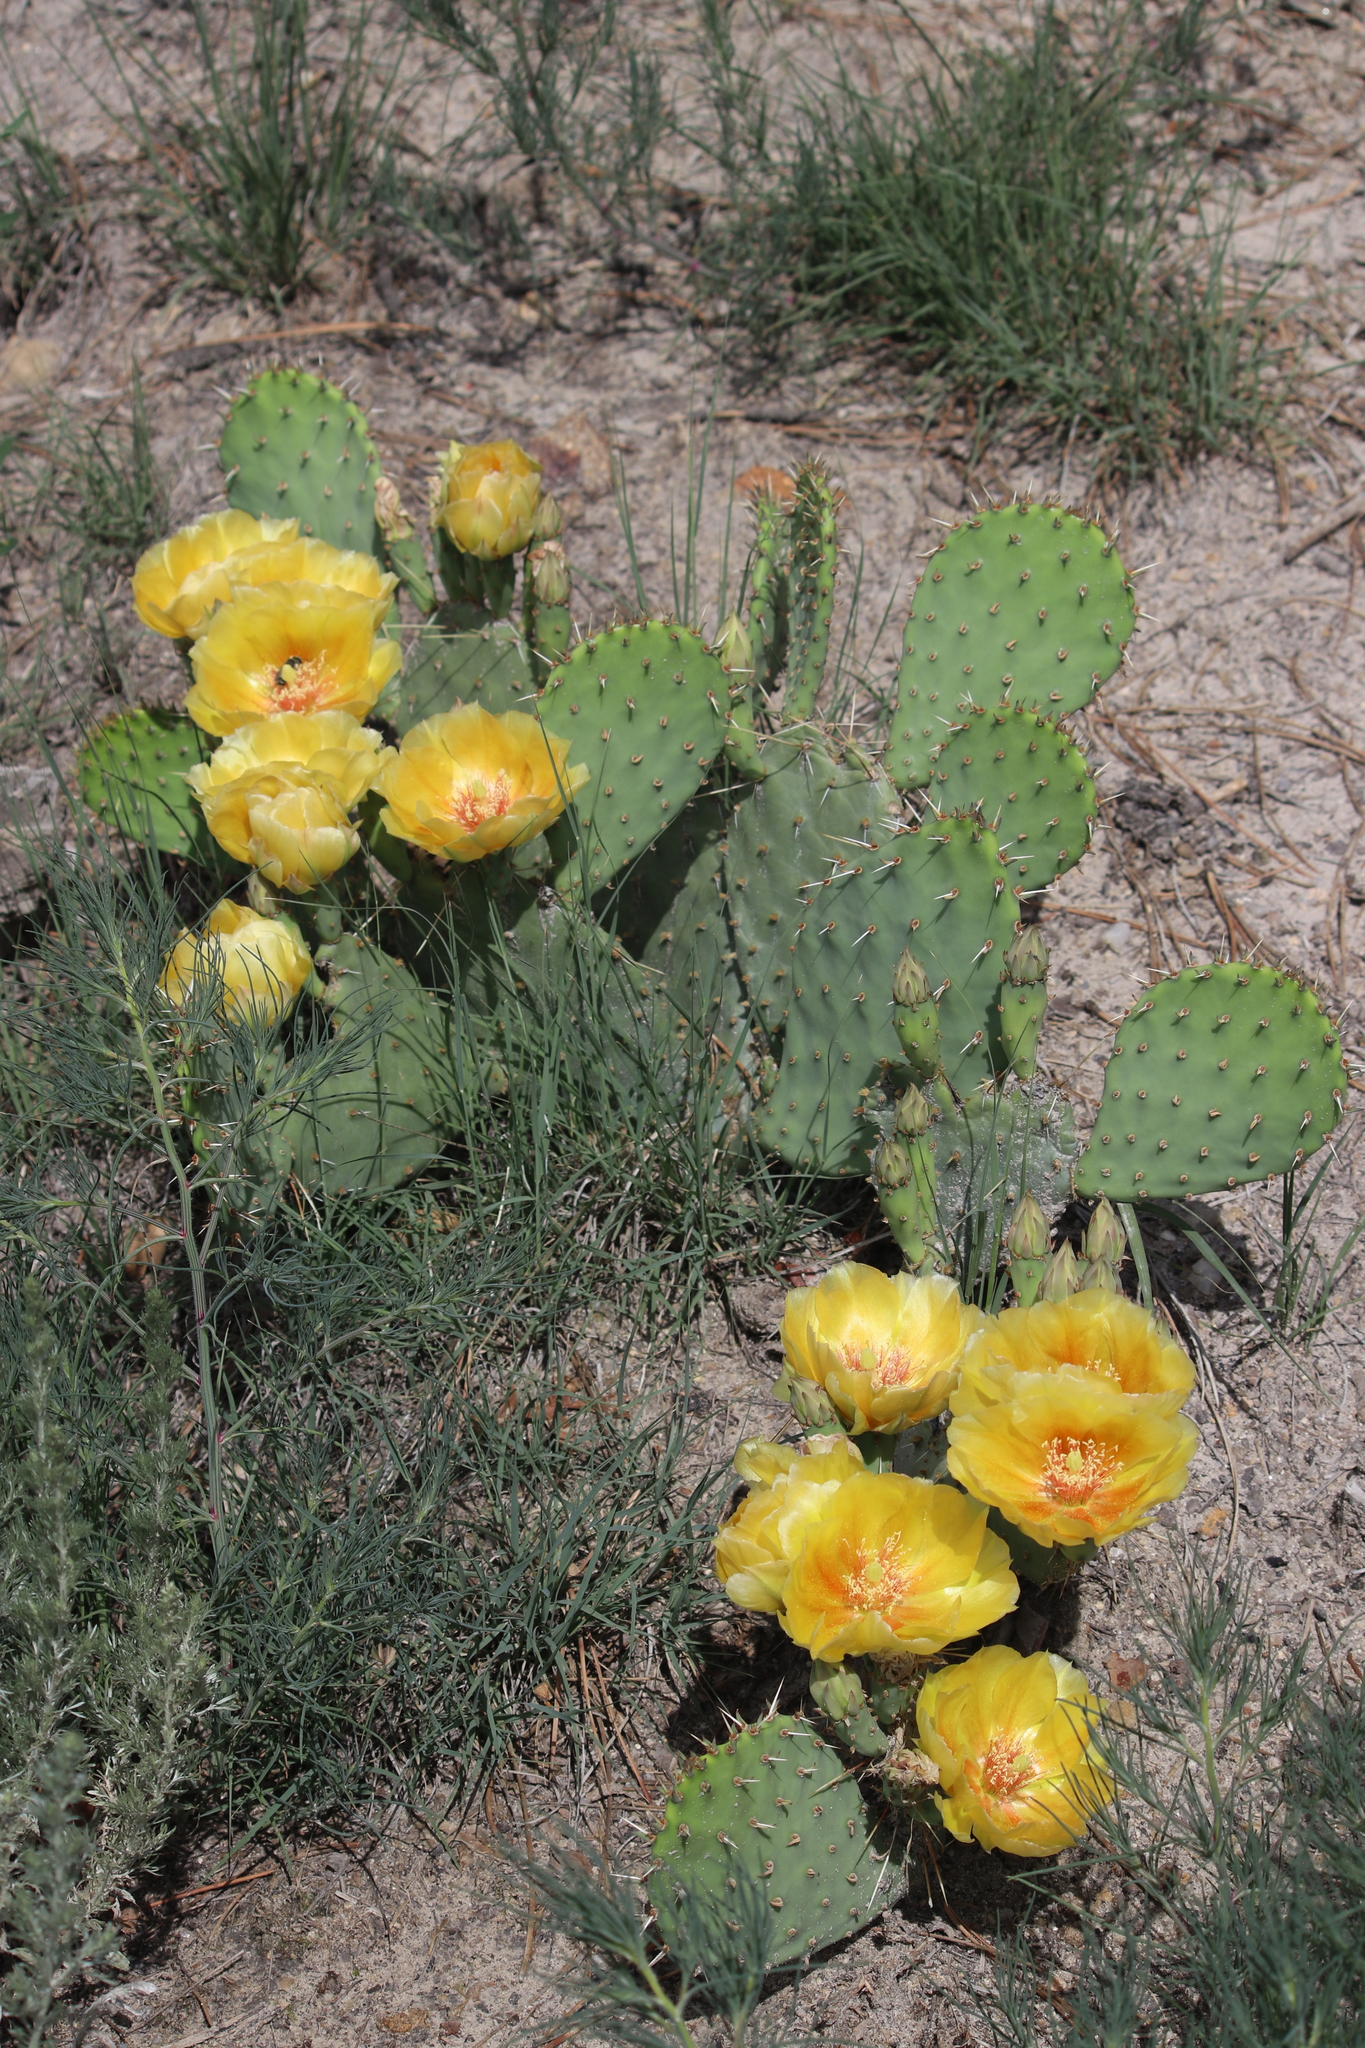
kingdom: Plantae
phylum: Tracheophyta
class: Magnoliopsida
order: Caryophyllales
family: Cactaceae
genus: Opuntia
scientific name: Opuntia macrorhiza
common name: Grassland pricklypear
